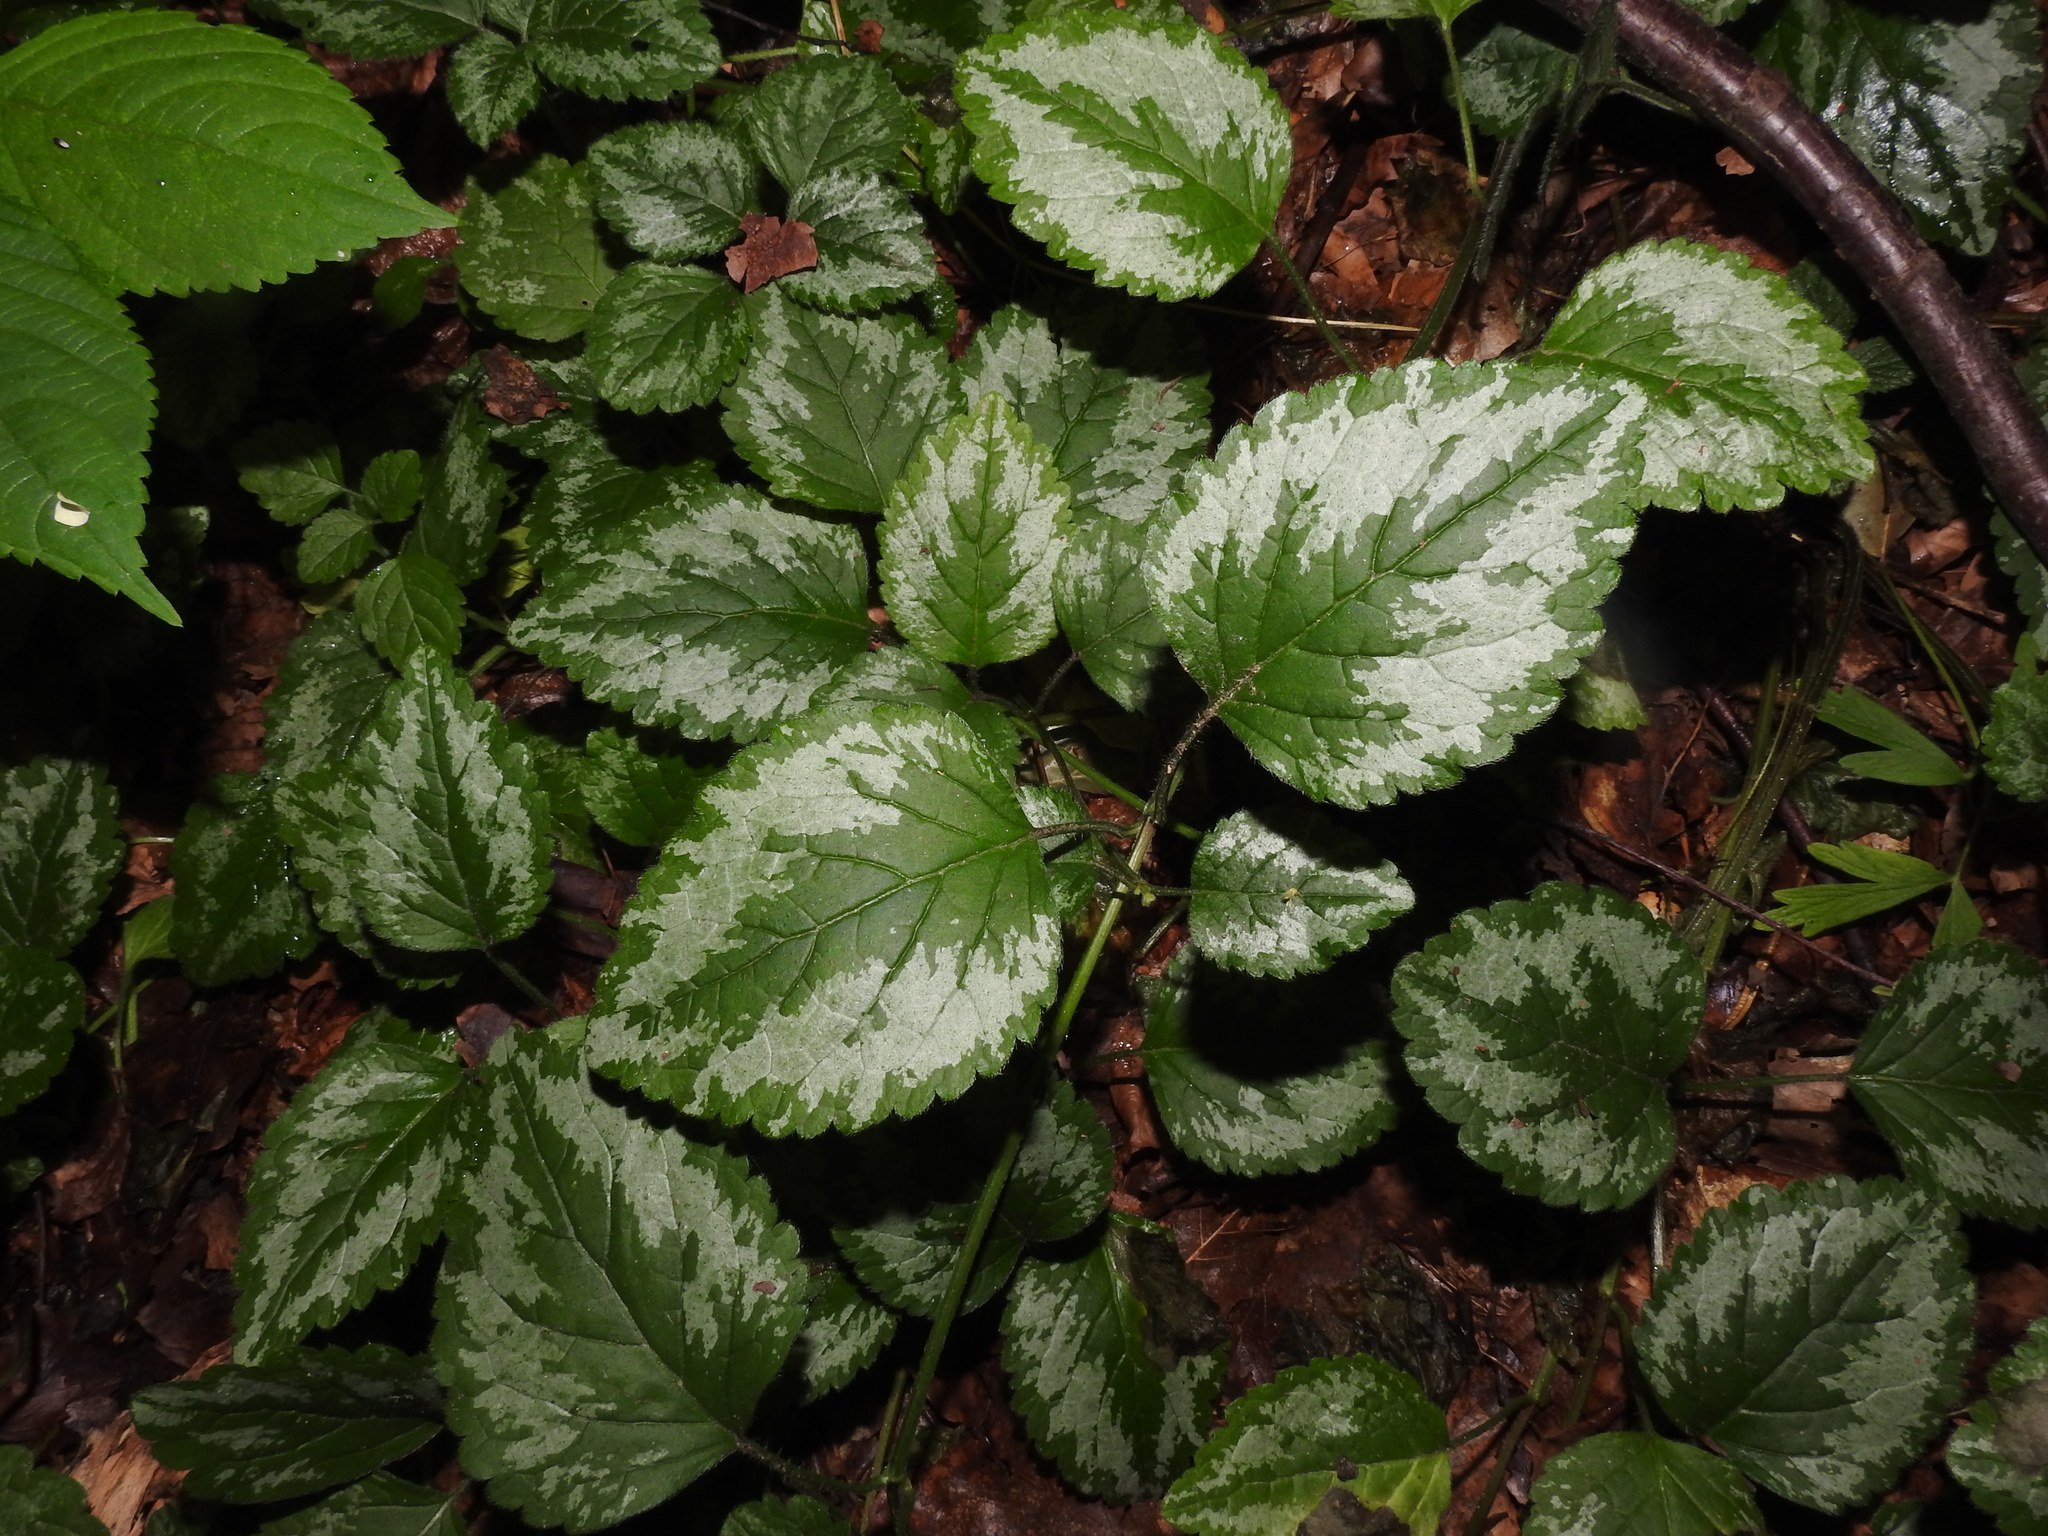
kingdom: Plantae
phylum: Tracheophyta
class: Magnoliopsida
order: Lamiales
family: Lamiaceae
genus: Lamium
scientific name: Lamium galeobdolon
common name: Yellow archangel
